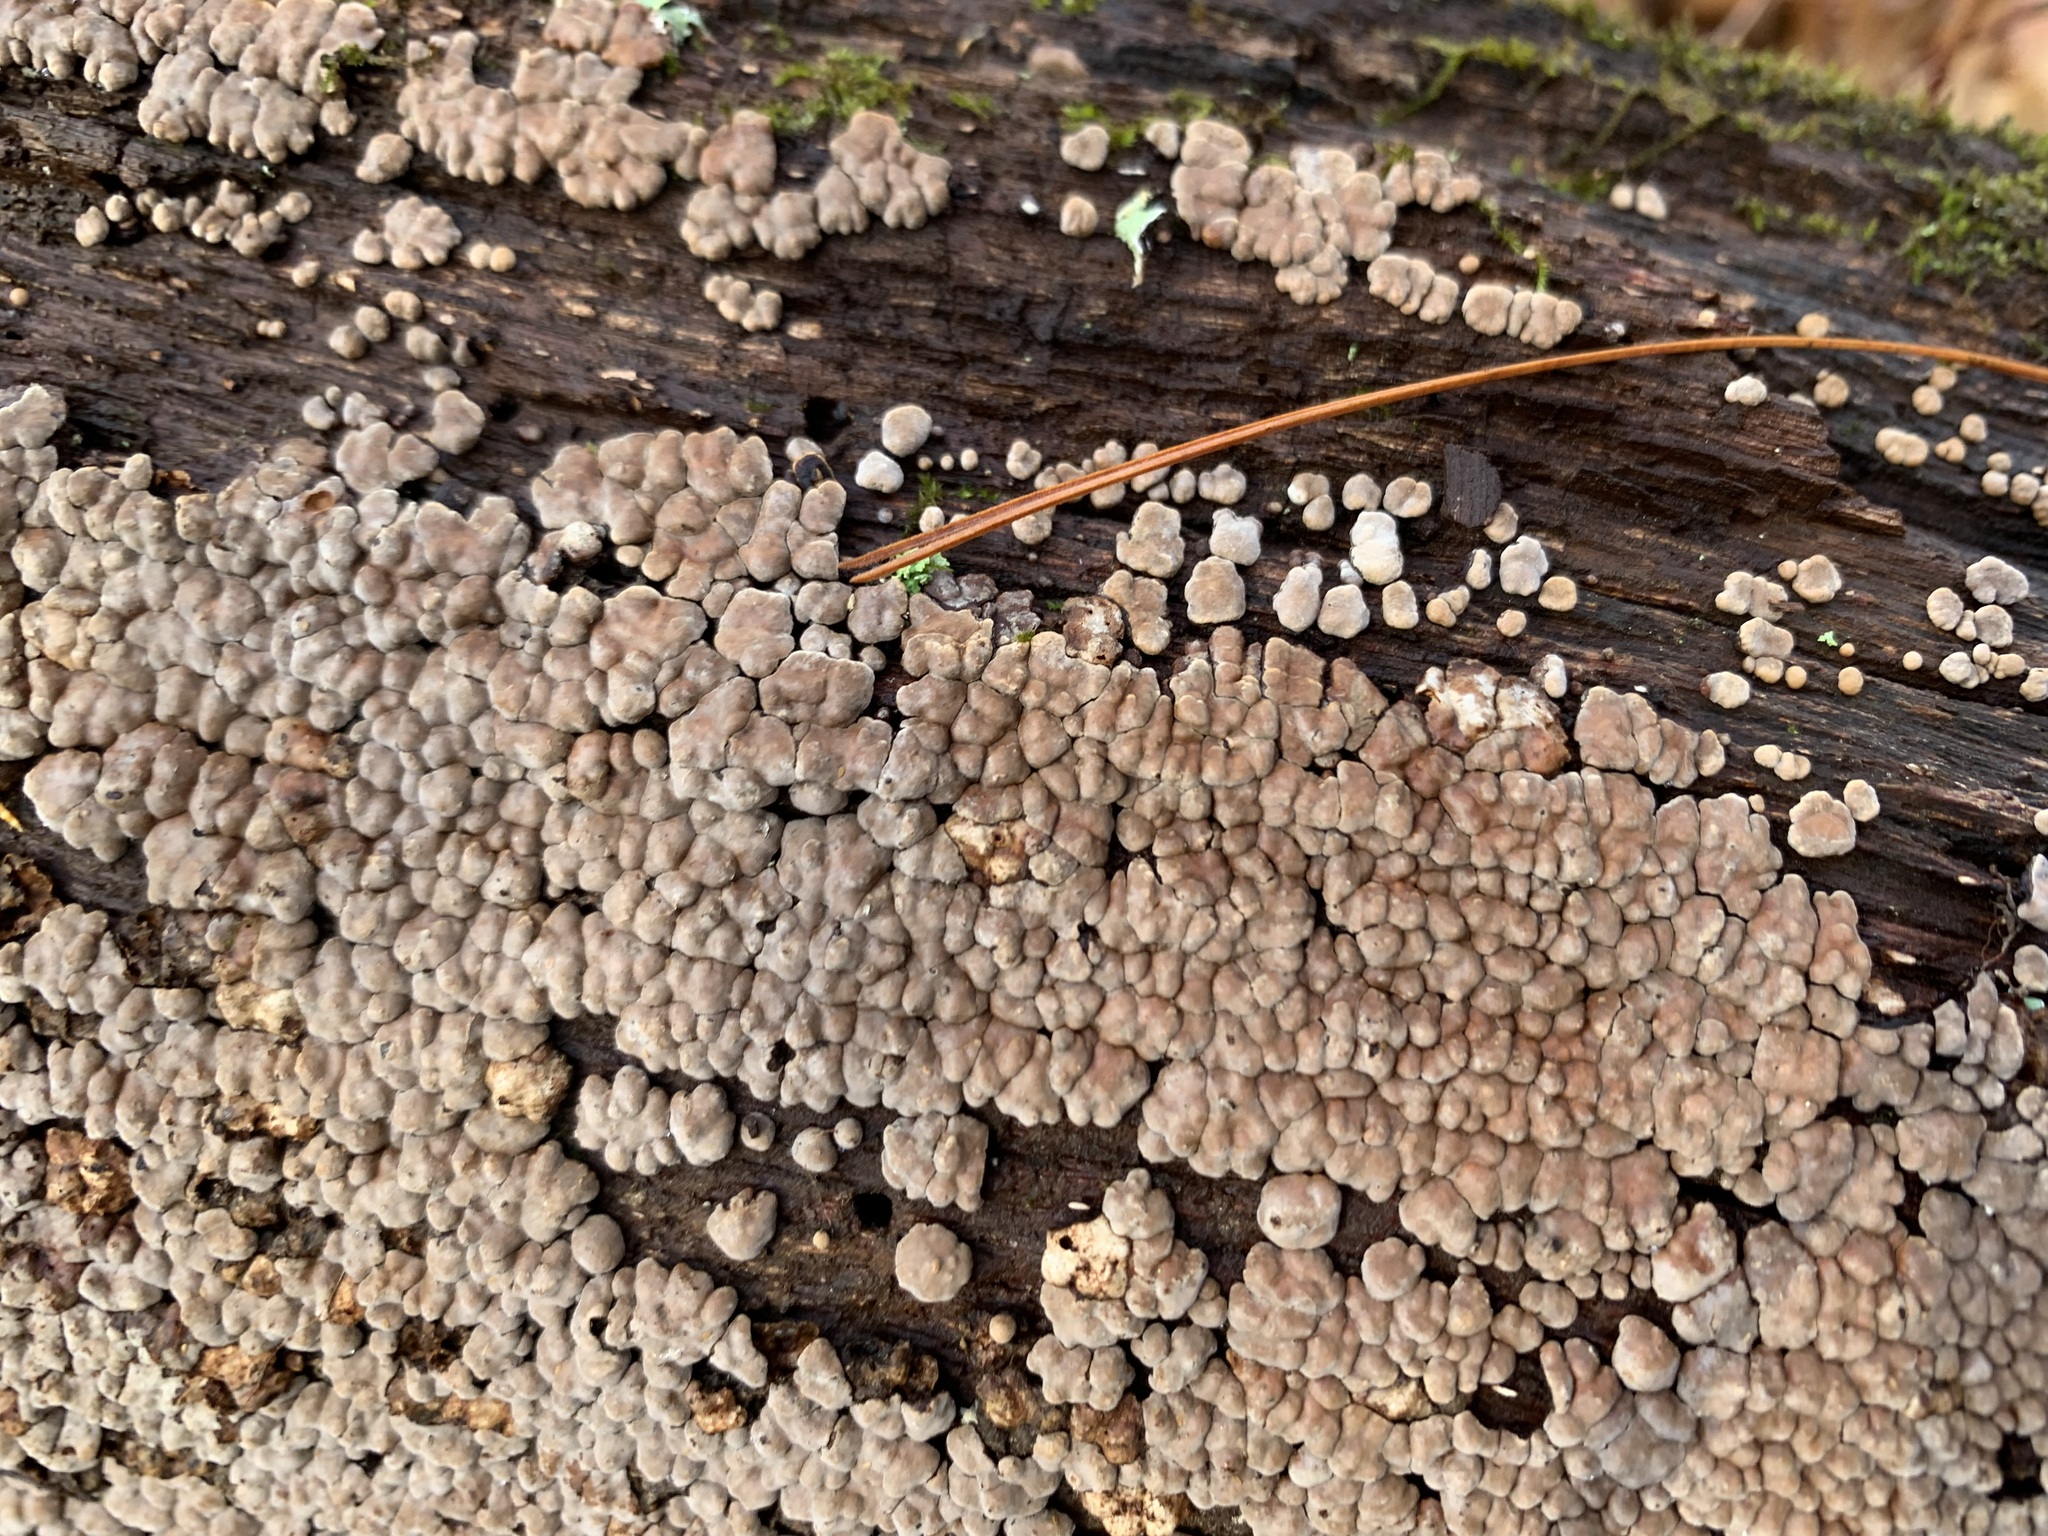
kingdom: Fungi
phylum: Basidiomycota
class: Agaricomycetes
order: Russulales
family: Stereaceae
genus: Xylobolus
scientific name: Xylobolus frustulatus
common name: Ceramic parchment
